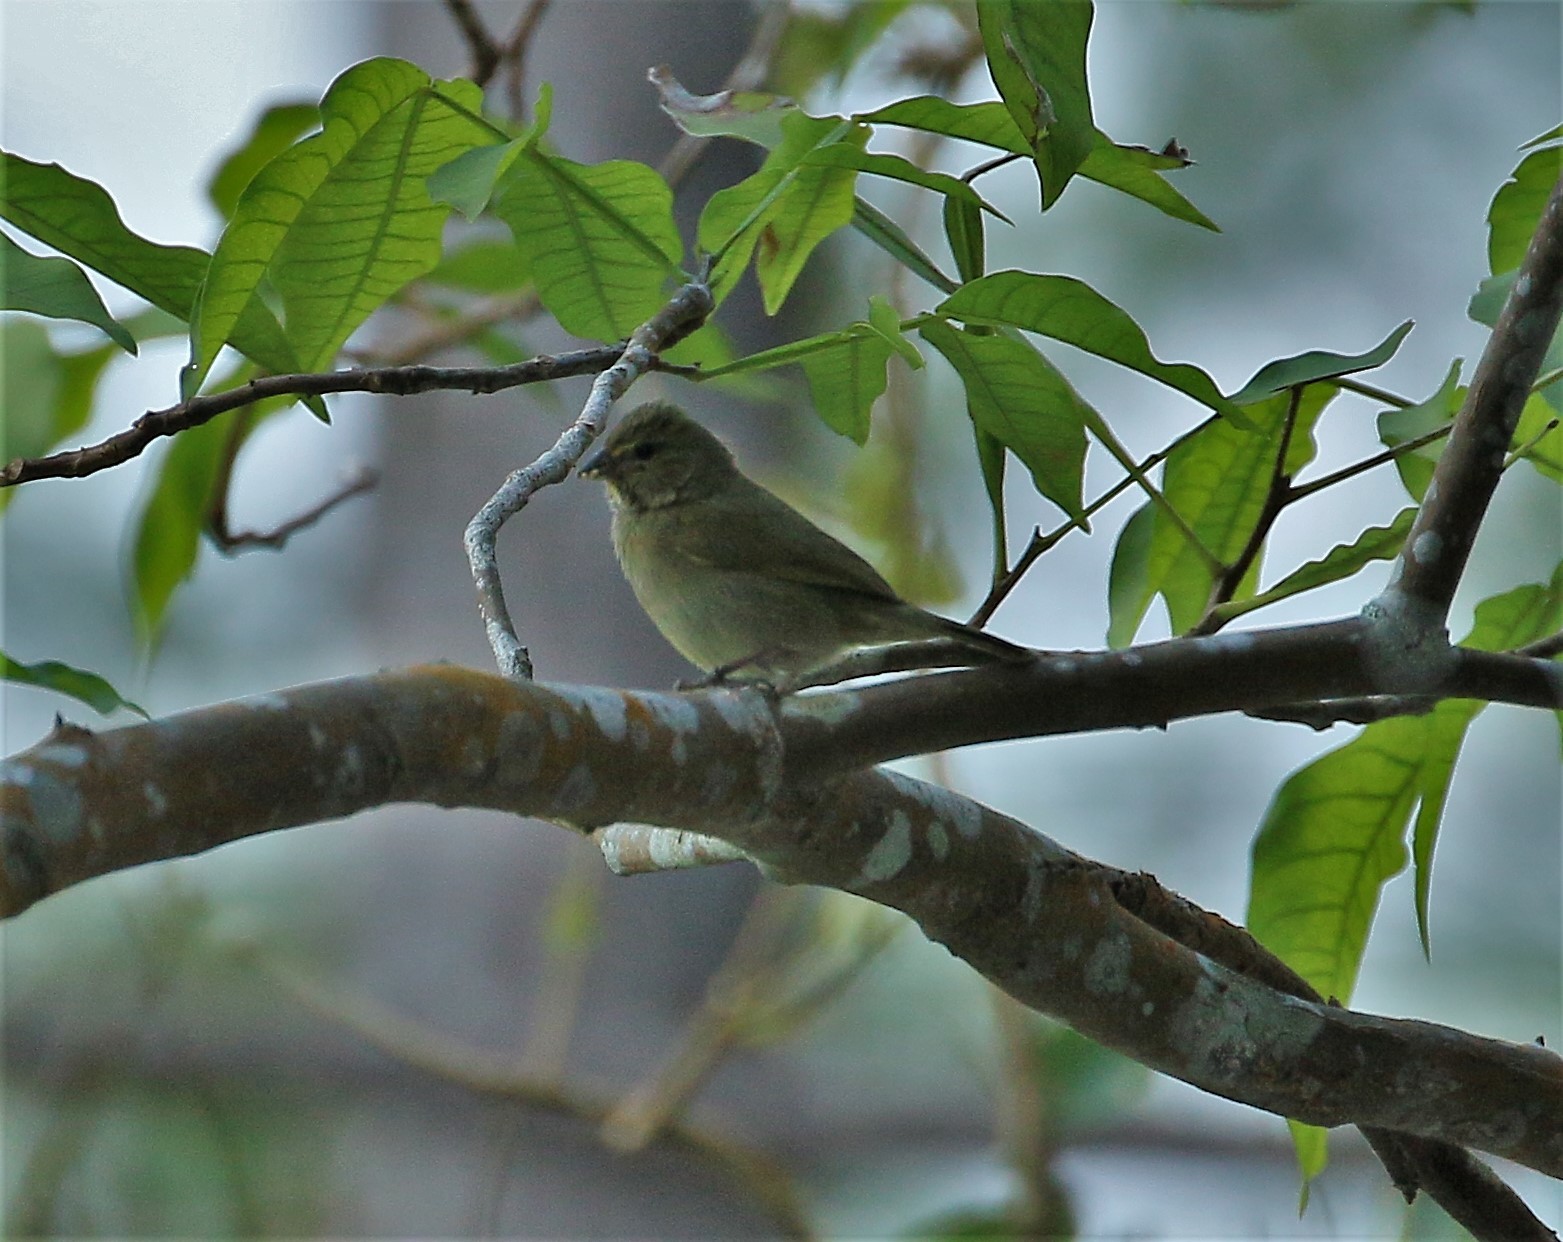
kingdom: Animalia
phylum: Chordata
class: Aves
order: Passeriformes
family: Thraupidae
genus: Tiaris
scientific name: Tiaris olivaceus
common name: Yellow-faced grassquit
